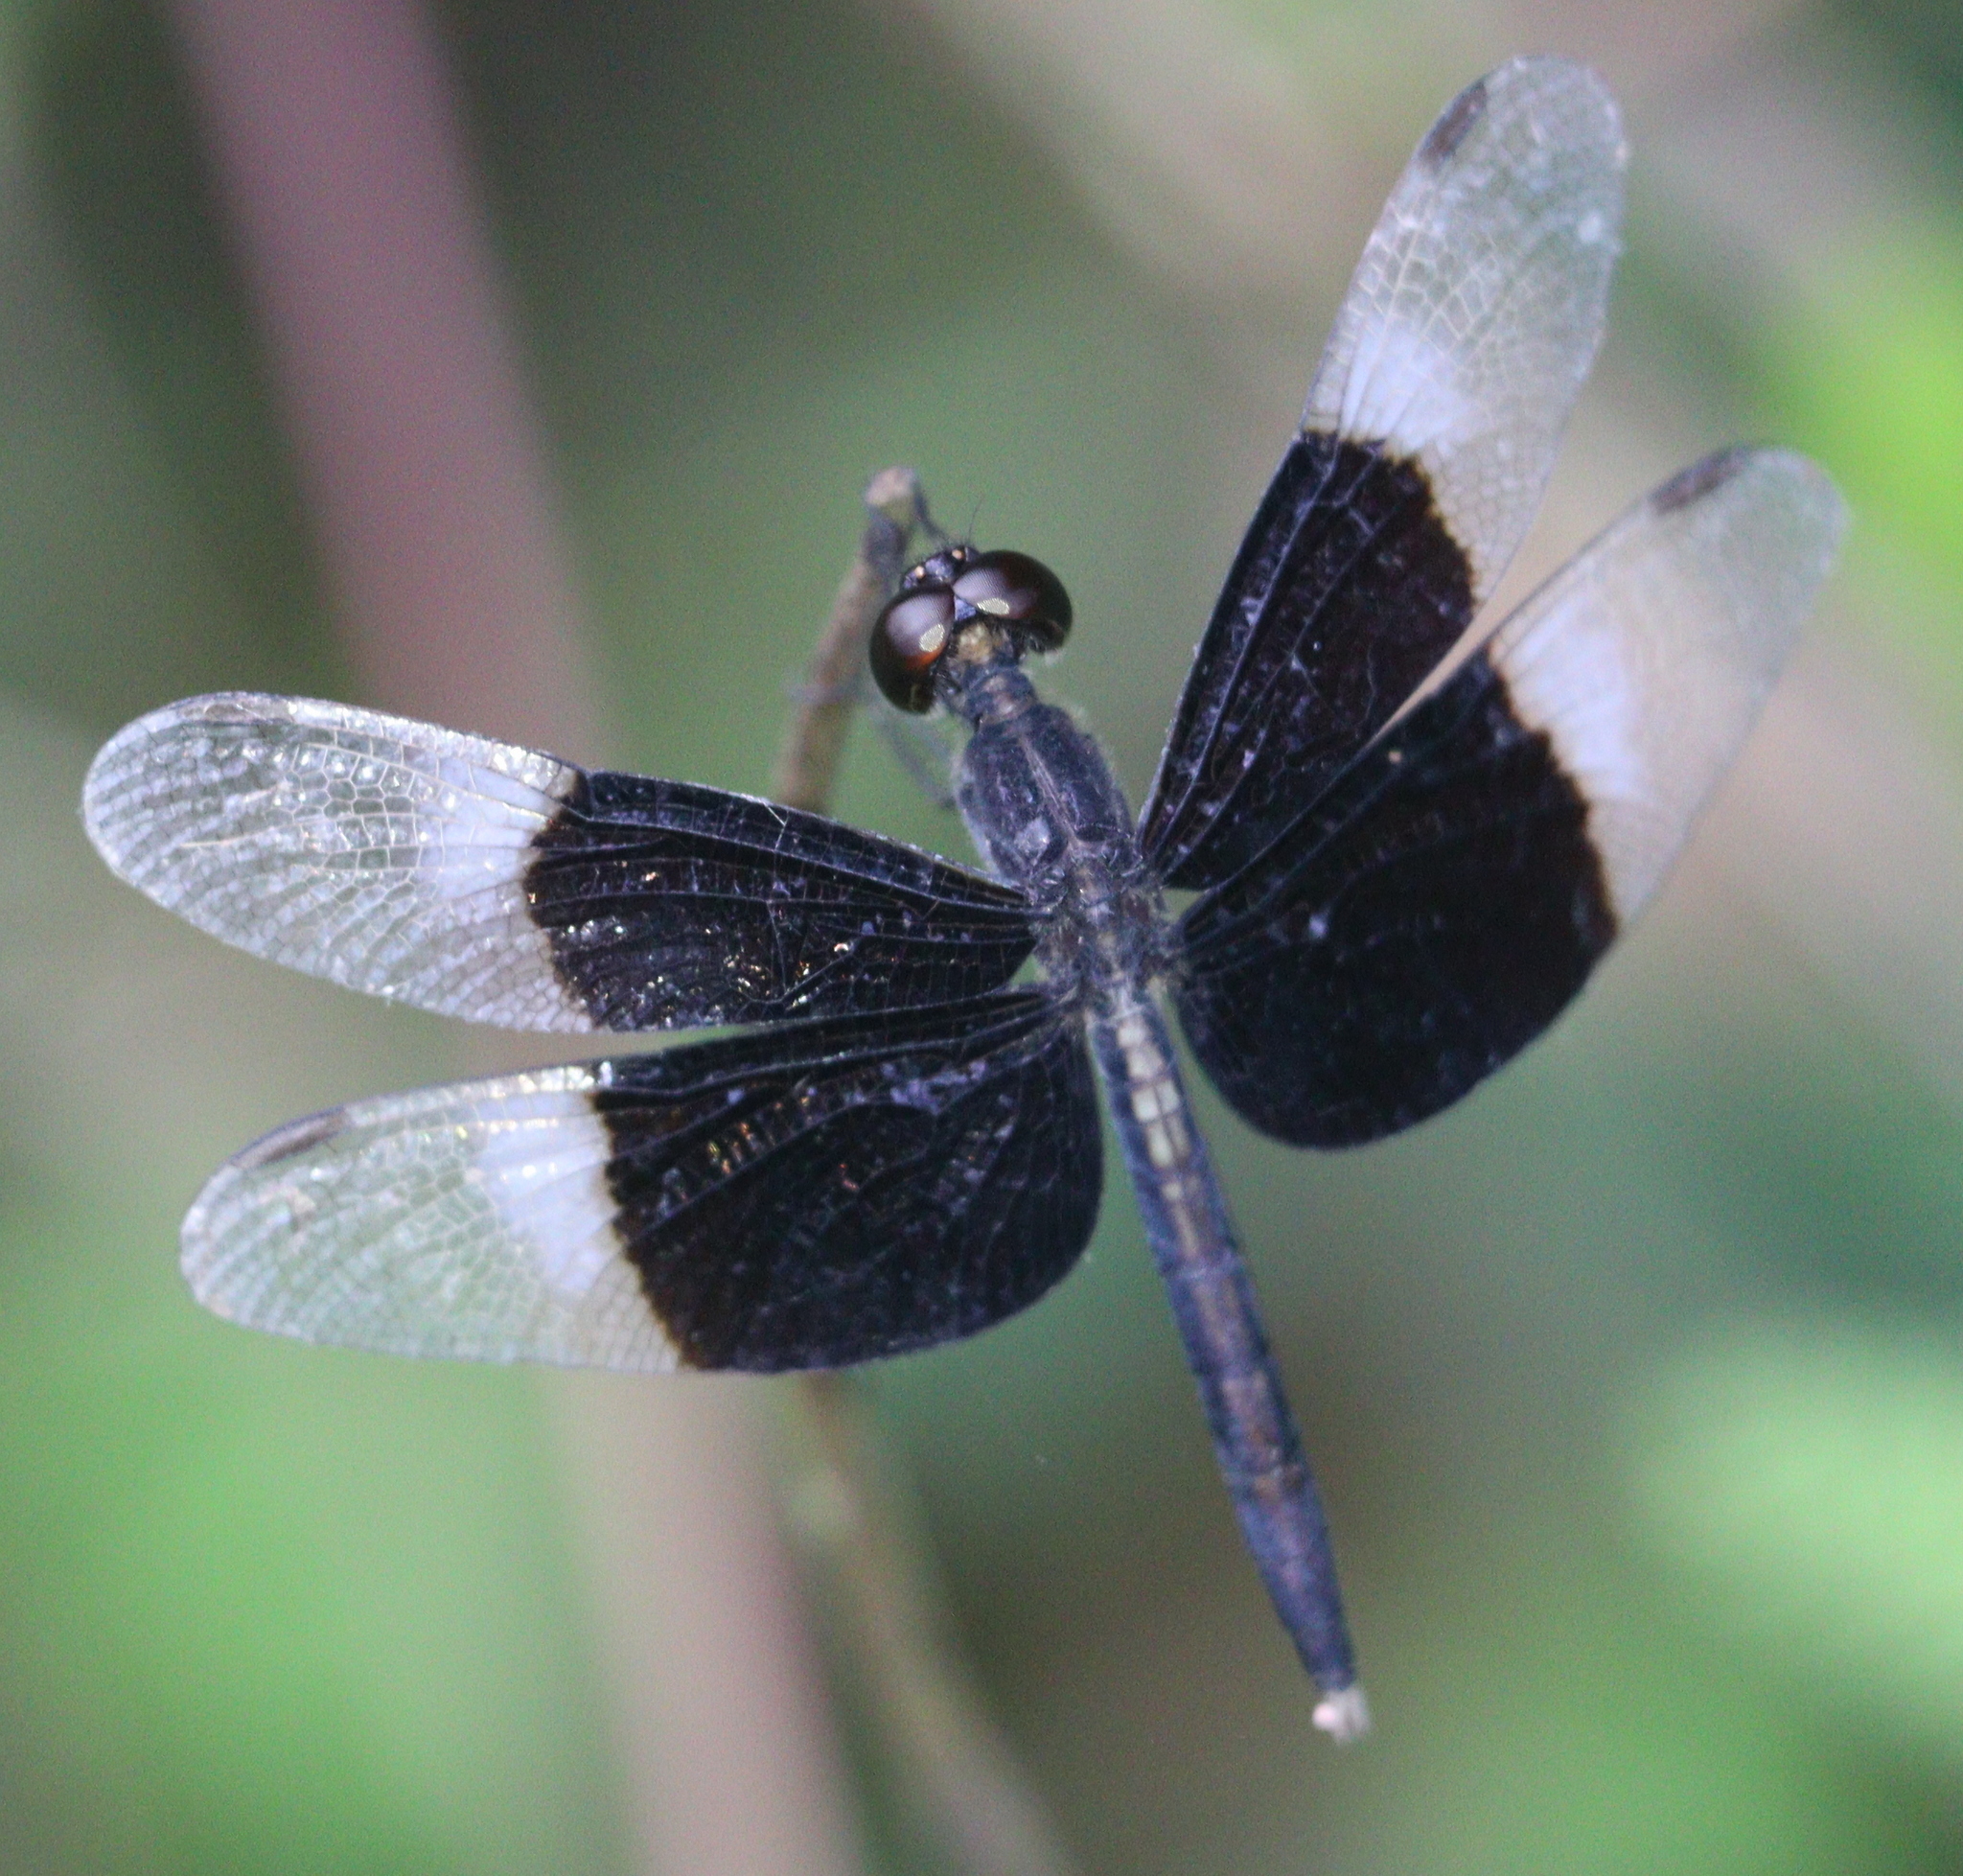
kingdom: Animalia
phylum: Arthropoda
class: Insecta
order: Odonata
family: Libellulidae
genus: Neurothemis
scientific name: Neurothemis tullia
